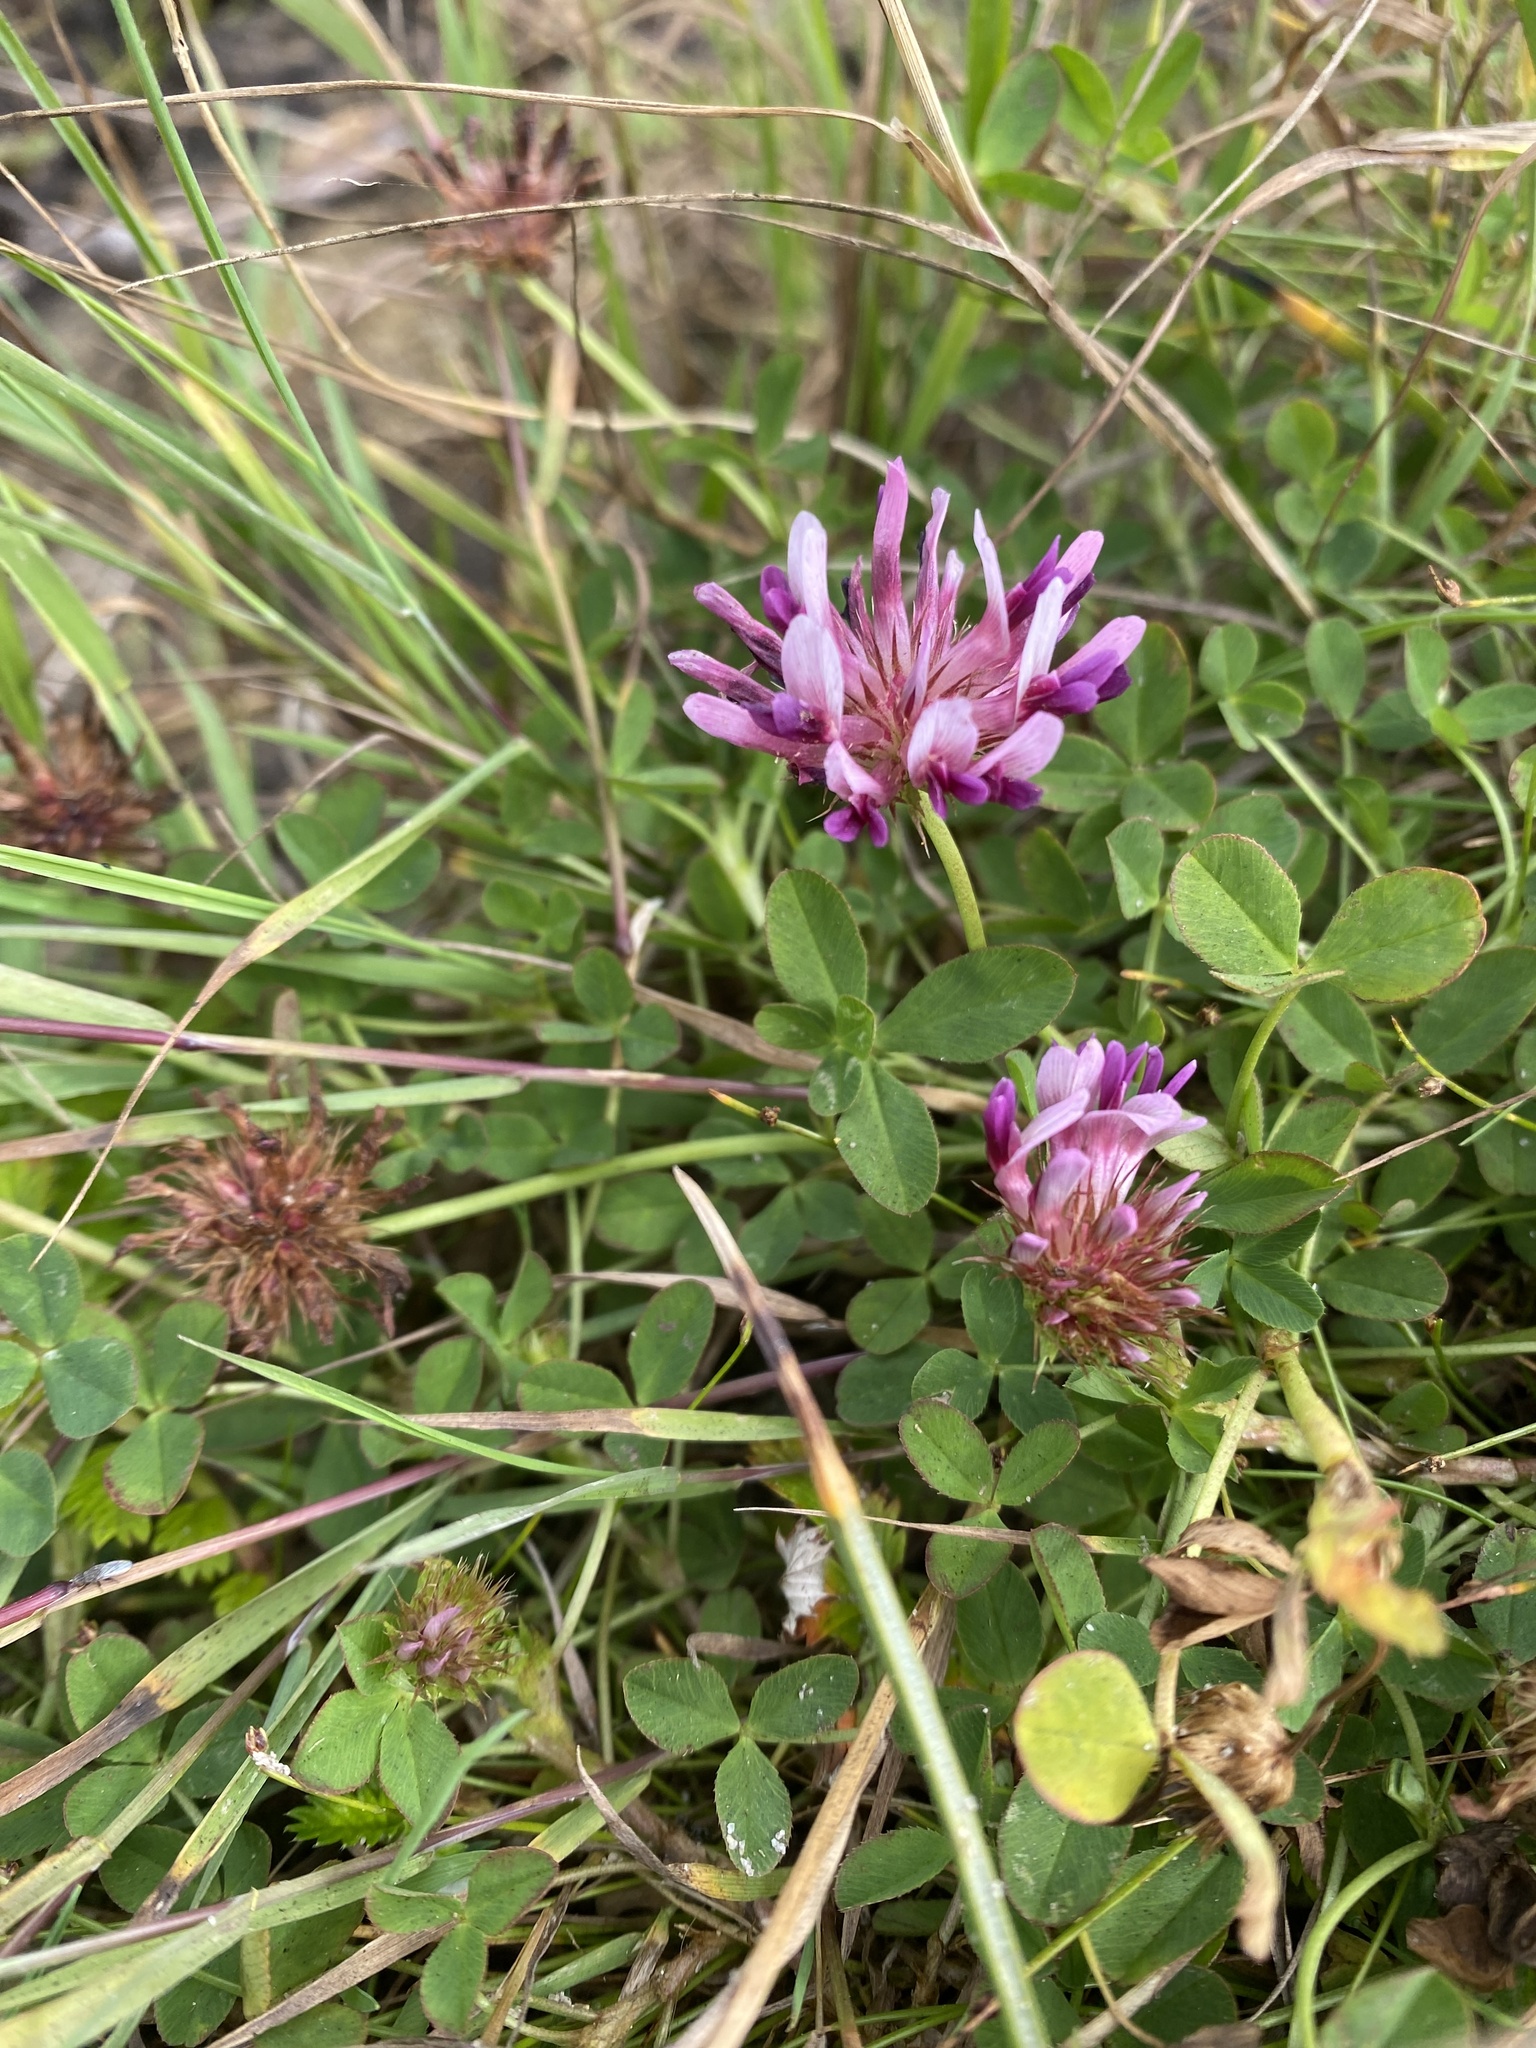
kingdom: Plantae
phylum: Tracheophyta
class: Magnoliopsida
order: Fabales
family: Fabaceae
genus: Trifolium
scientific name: Trifolium wormskioldii
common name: Springbank clover
